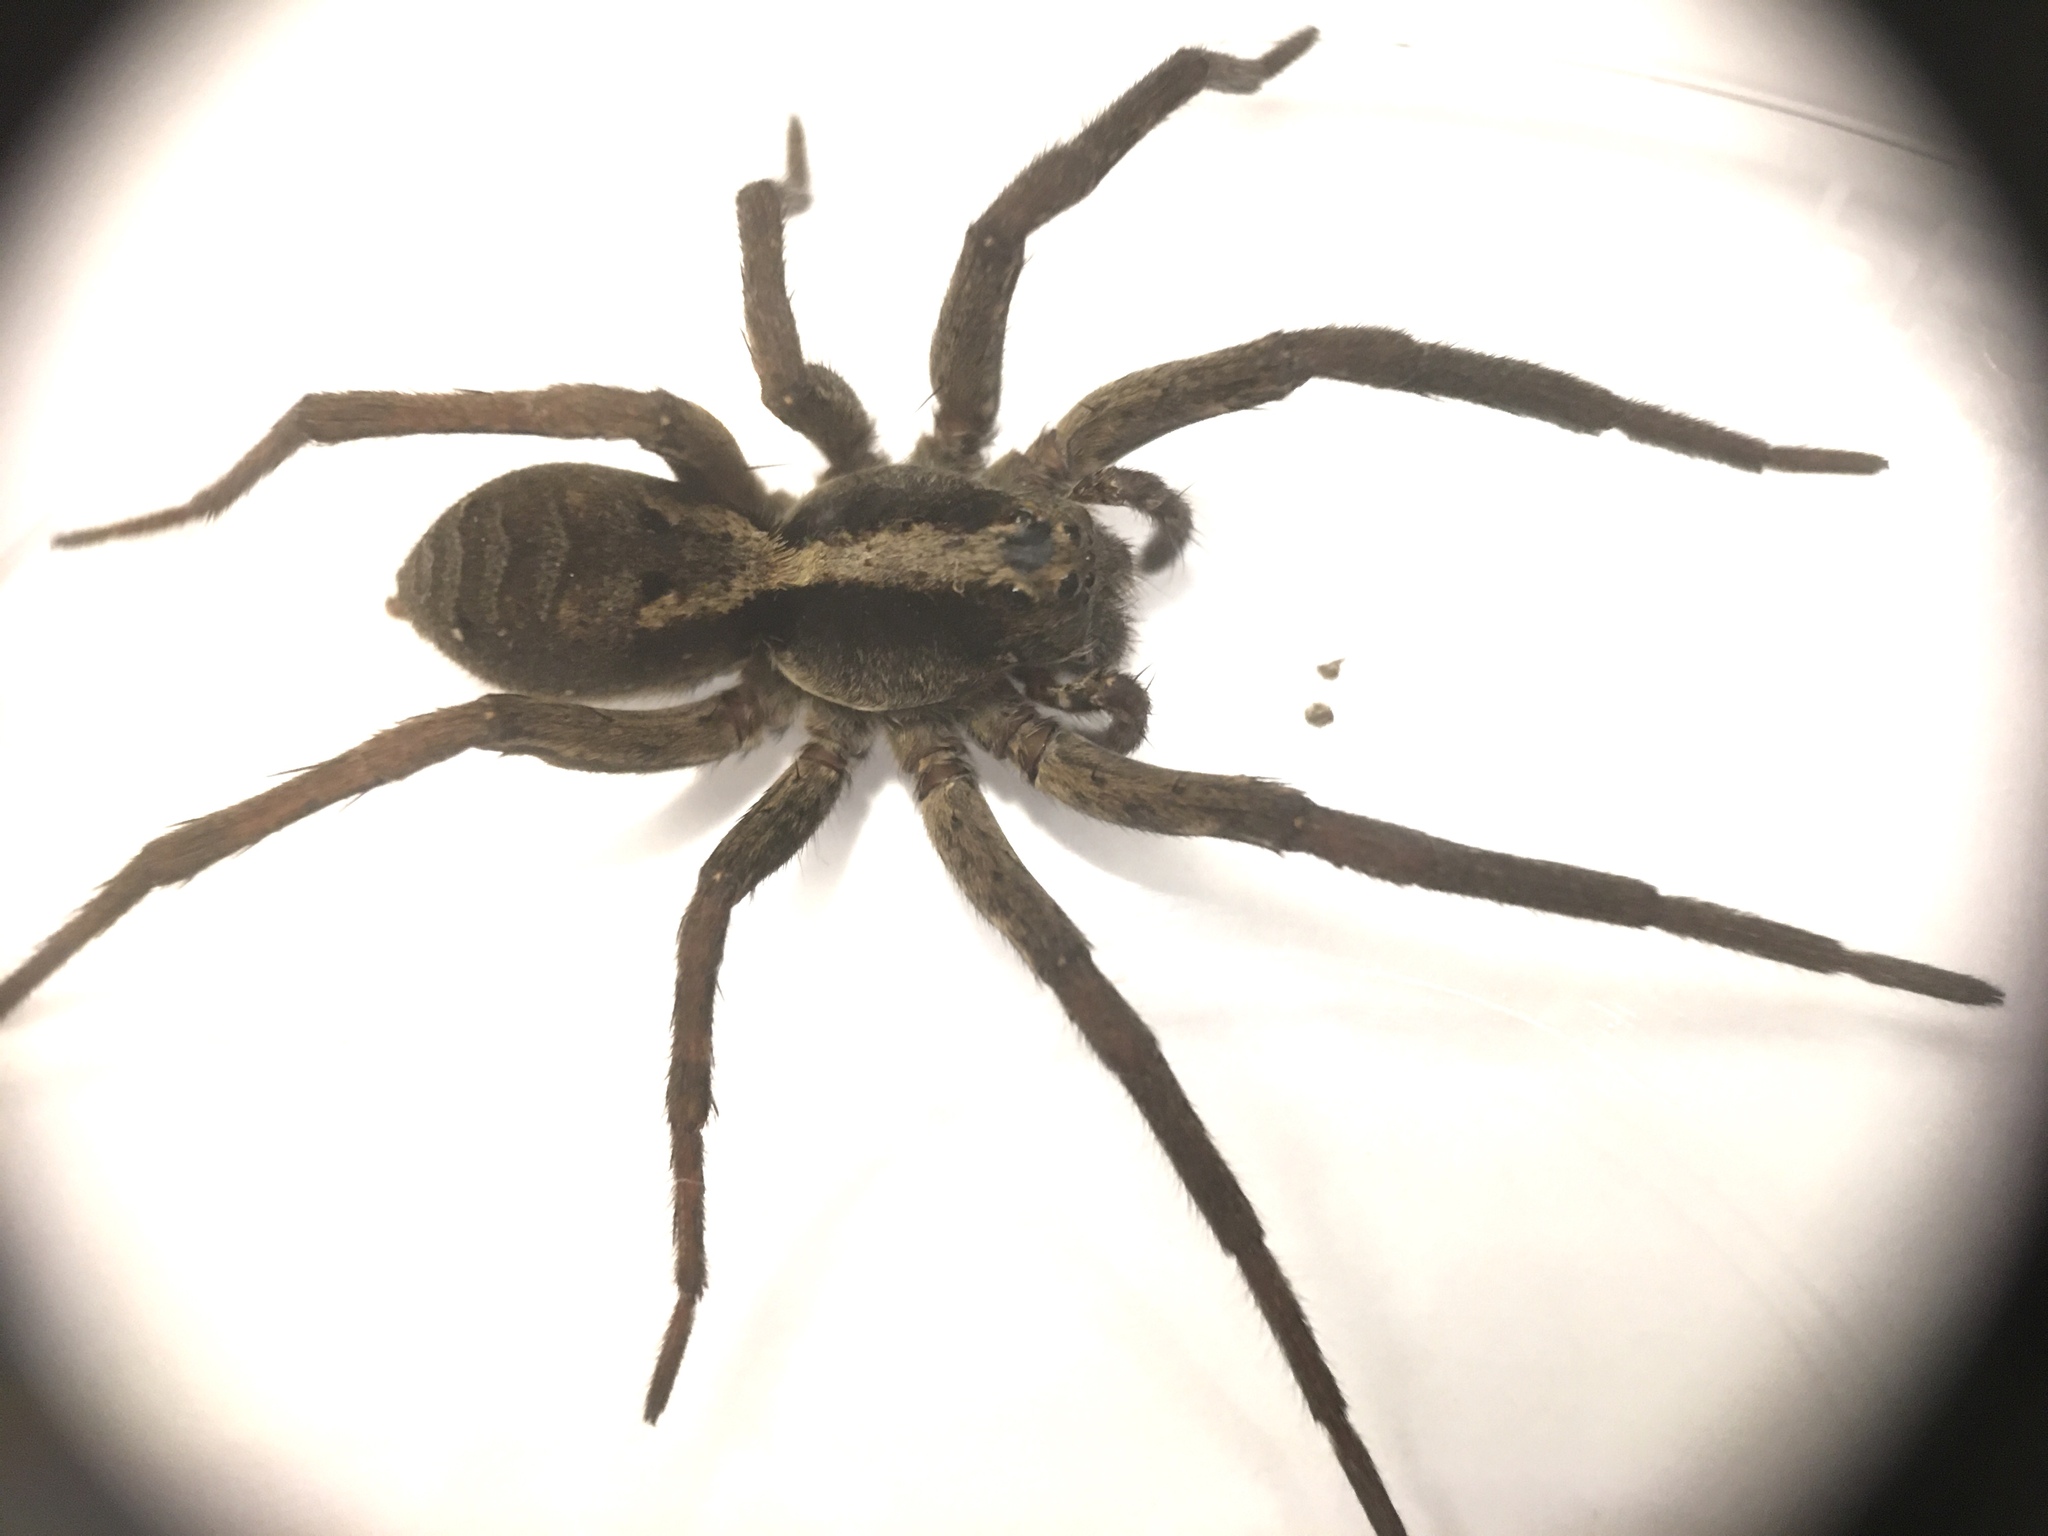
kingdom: Animalia
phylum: Arthropoda
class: Arachnida
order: Araneae
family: Lycosidae
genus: Hogna
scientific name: Hogna gumia
